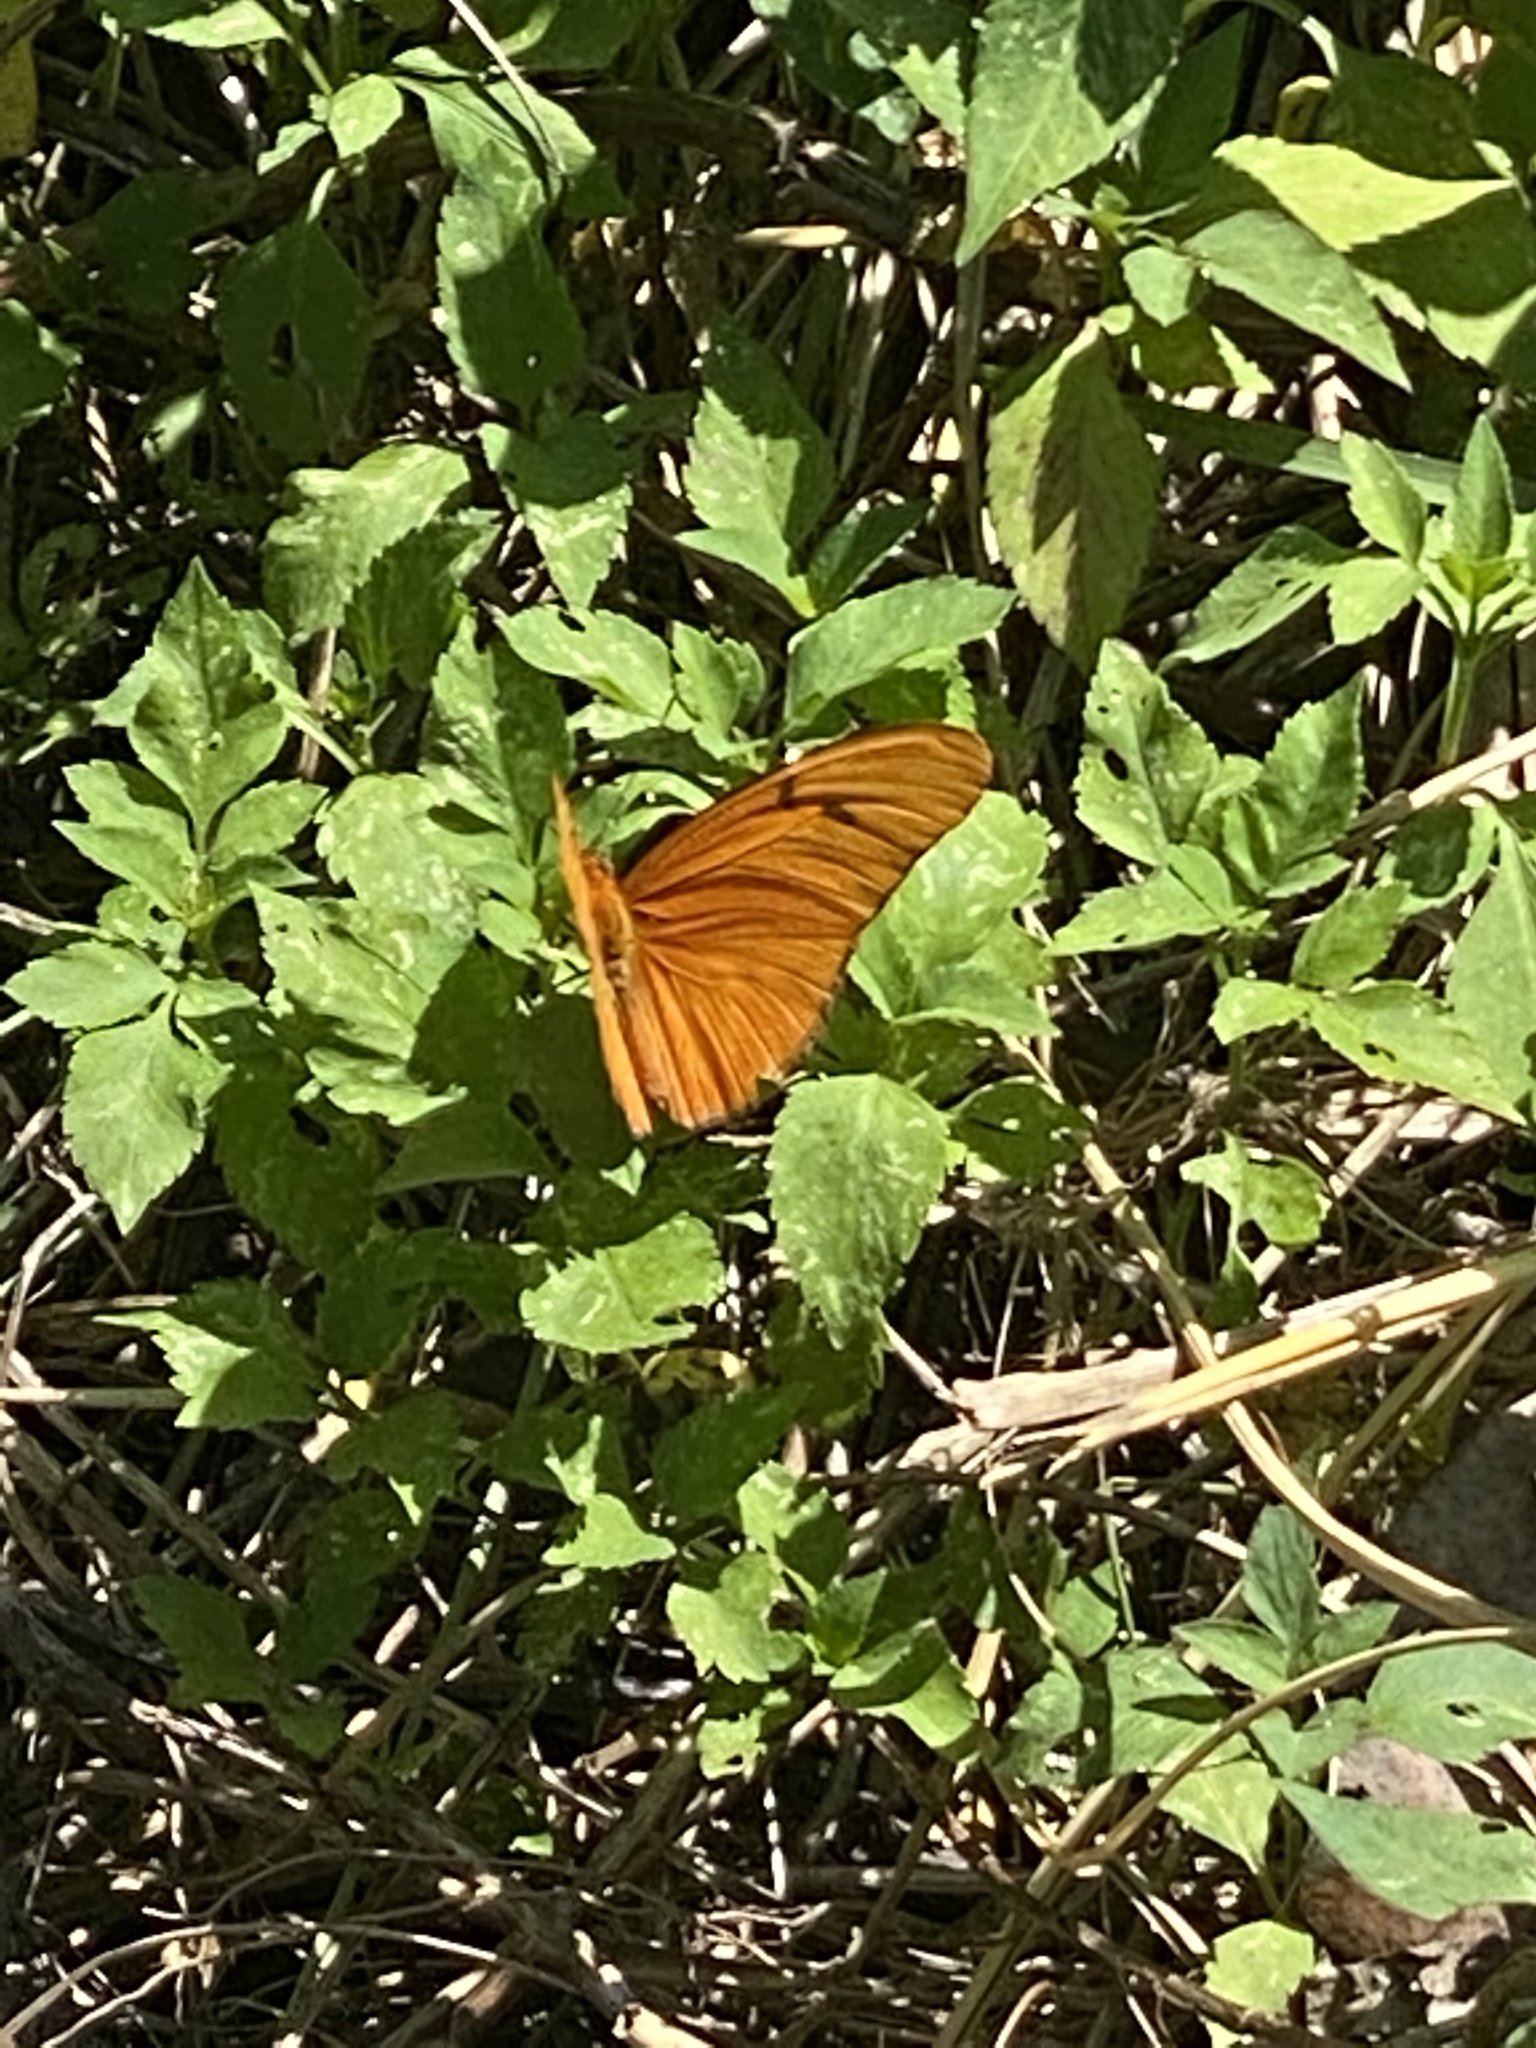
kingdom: Animalia
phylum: Arthropoda
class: Insecta
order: Lepidoptera
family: Nymphalidae
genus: Dryas
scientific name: Dryas iulia
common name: Flambeau
